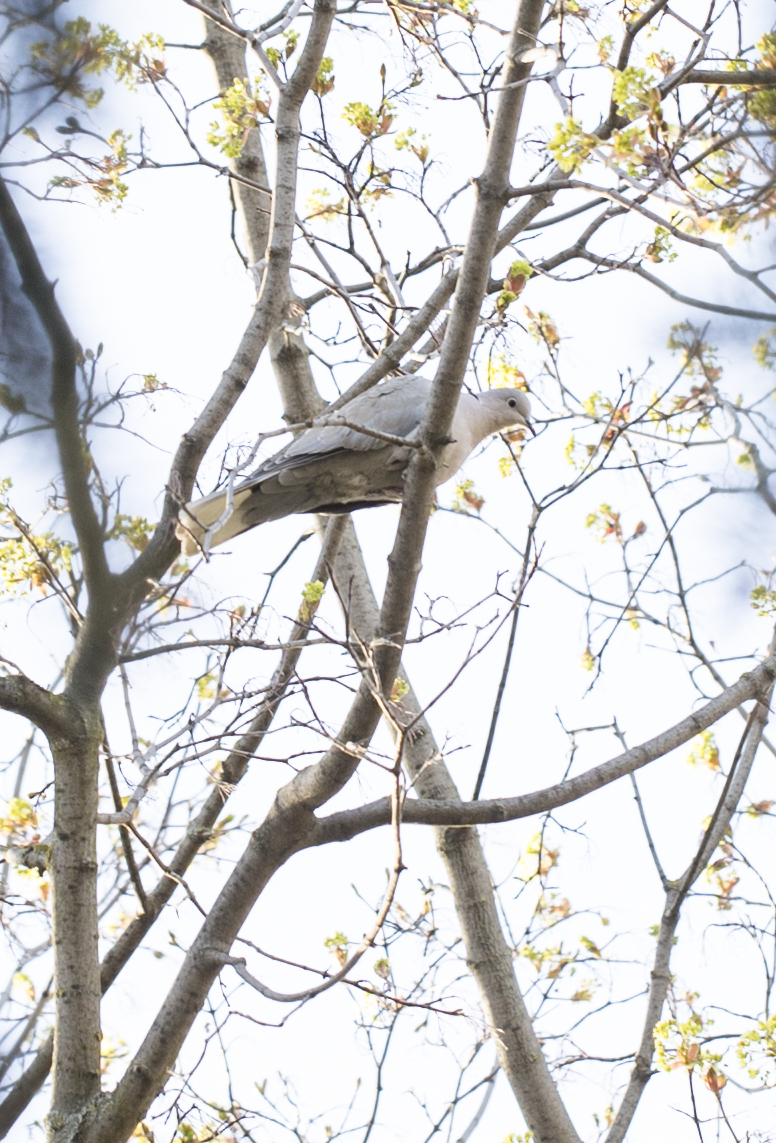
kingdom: Animalia
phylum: Chordata
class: Aves
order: Columbiformes
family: Columbidae
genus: Streptopelia
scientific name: Streptopelia decaocto
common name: Eurasian collared dove
